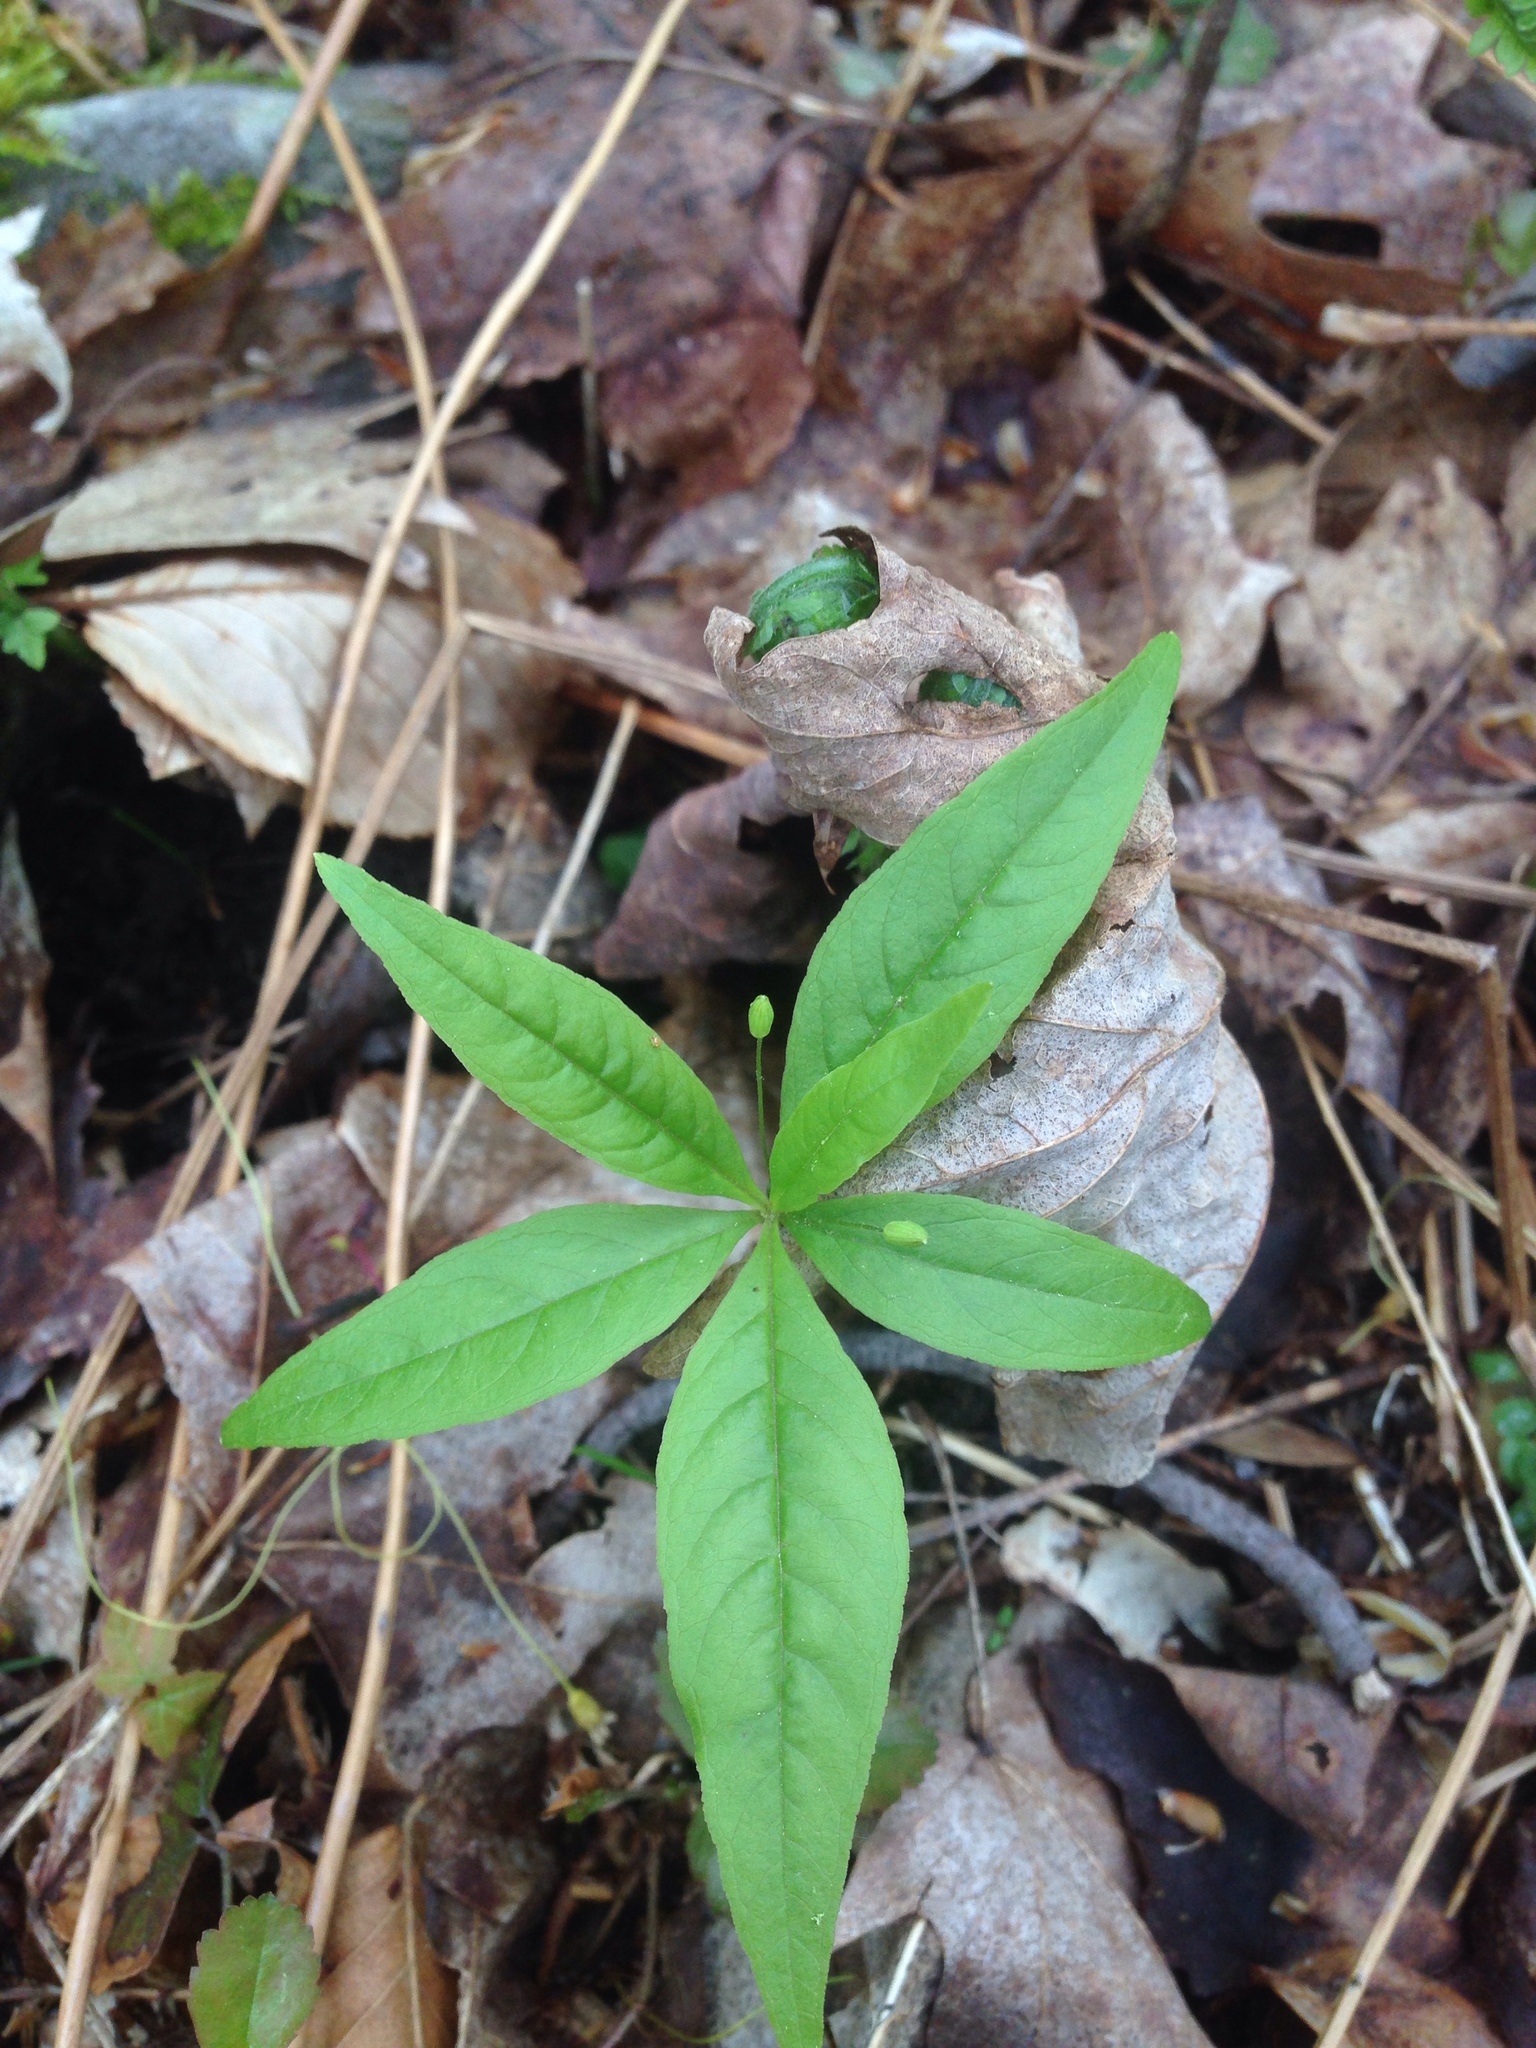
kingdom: Plantae
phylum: Tracheophyta
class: Magnoliopsida
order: Ericales
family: Primulaceae
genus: Lysimachia
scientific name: Lysimachia borealis
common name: American starflower
